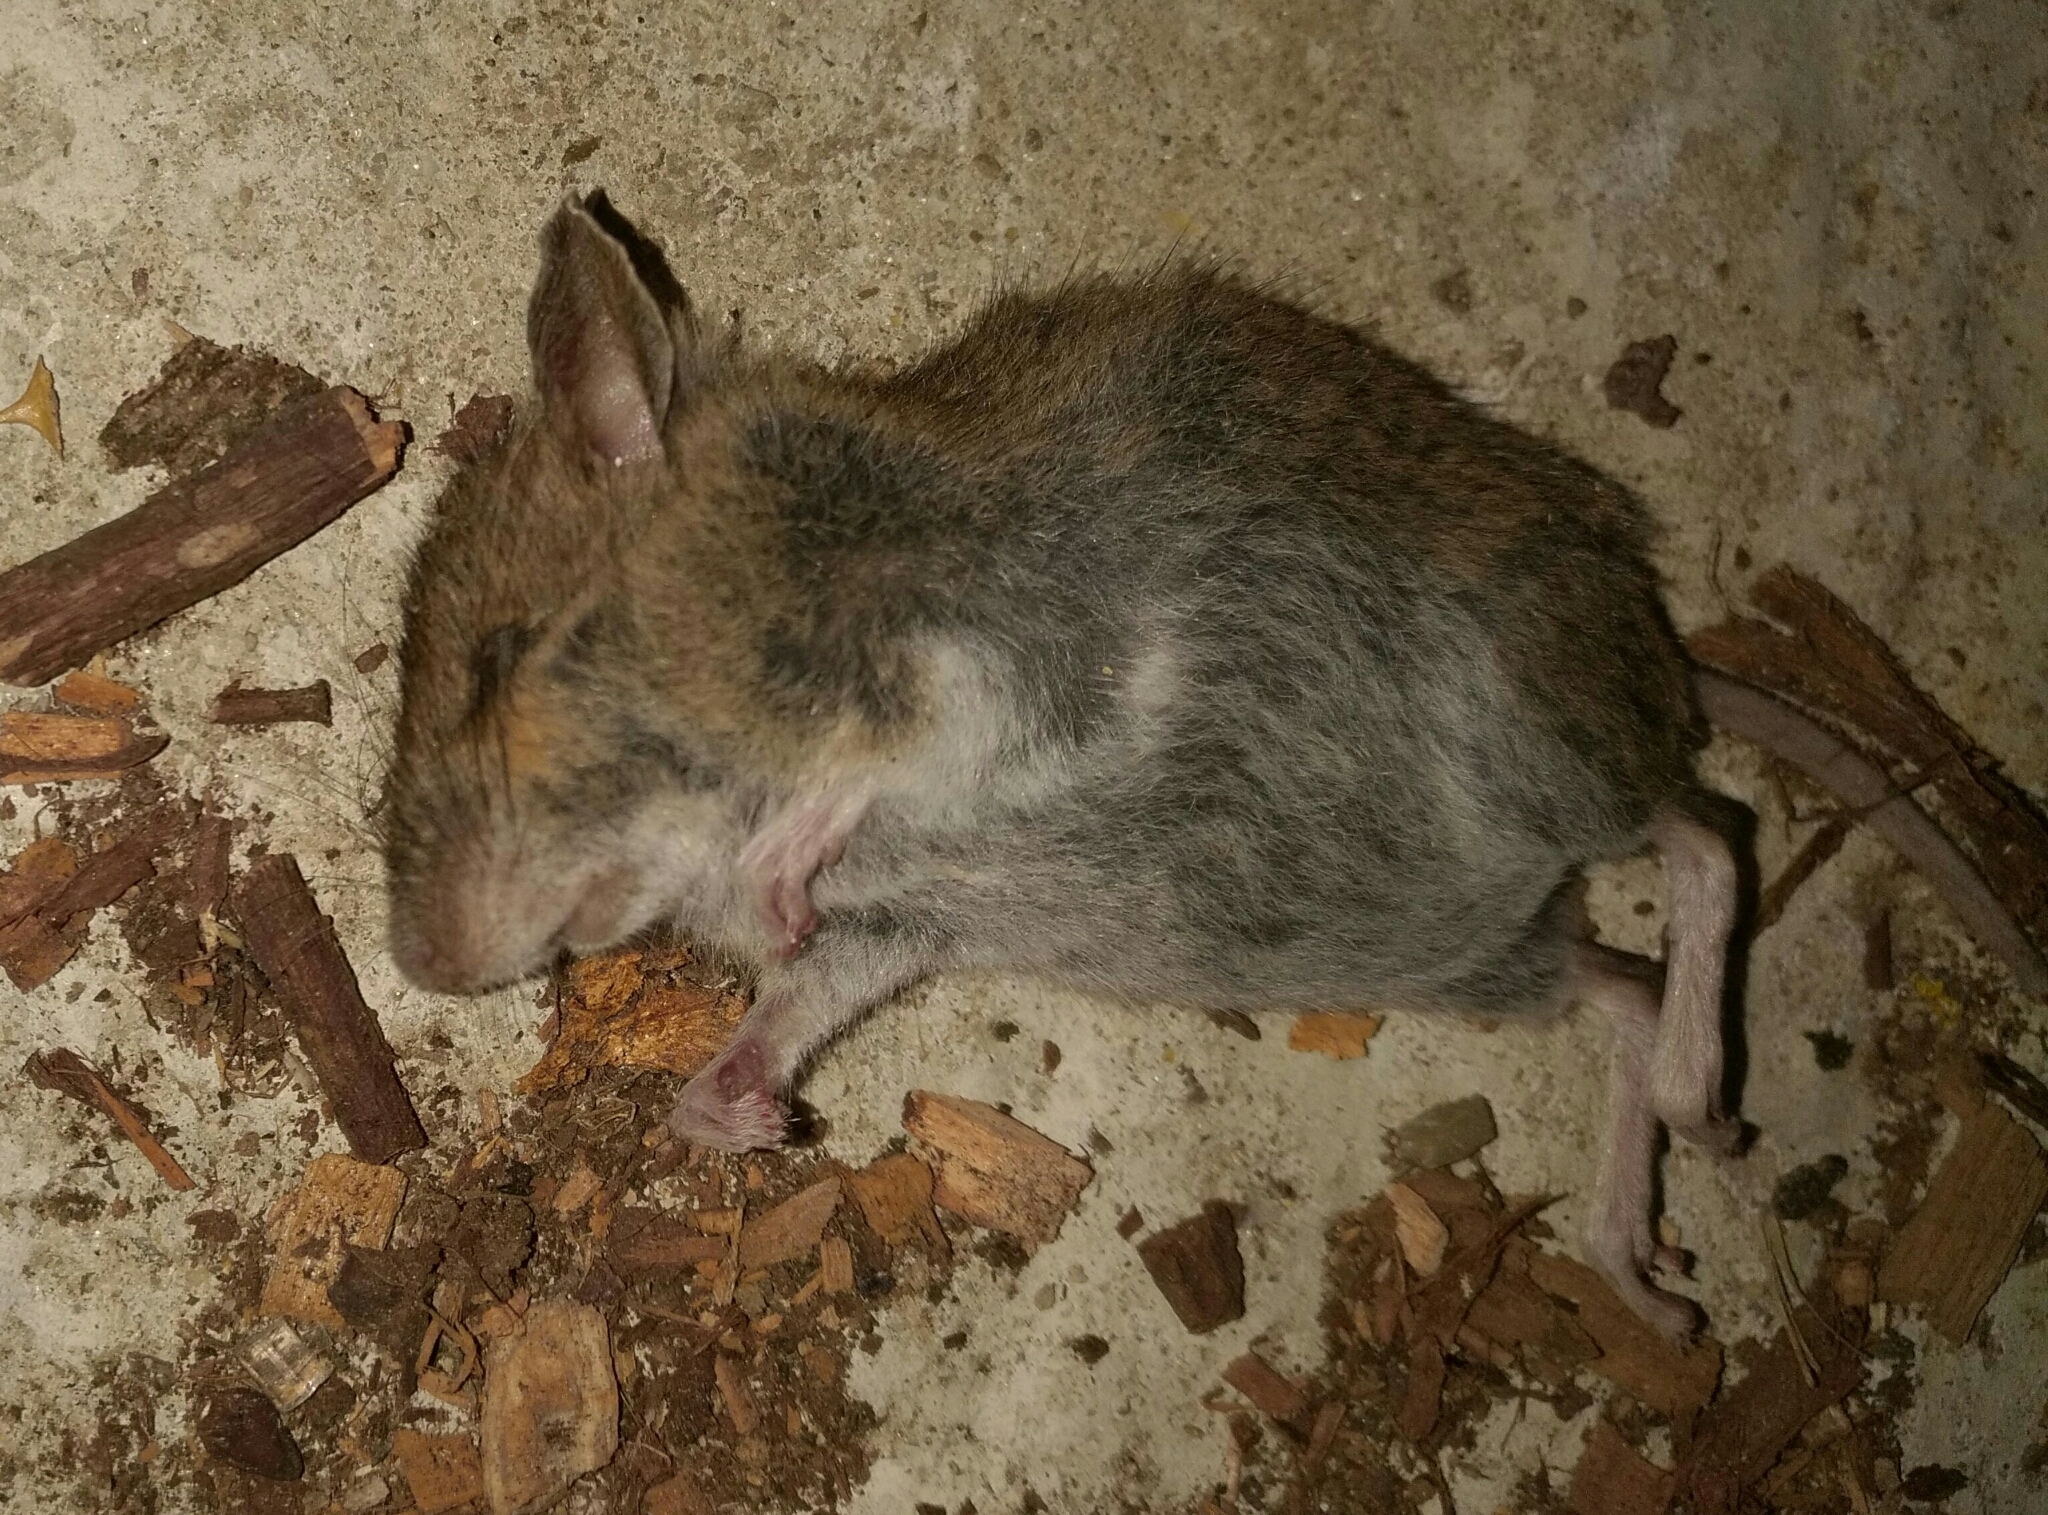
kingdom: Animalia
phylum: Chordata
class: Mammalia
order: Rodentia
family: Muridae
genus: Apodemus
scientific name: Apodemus sylvaticus
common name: Wood mouse
